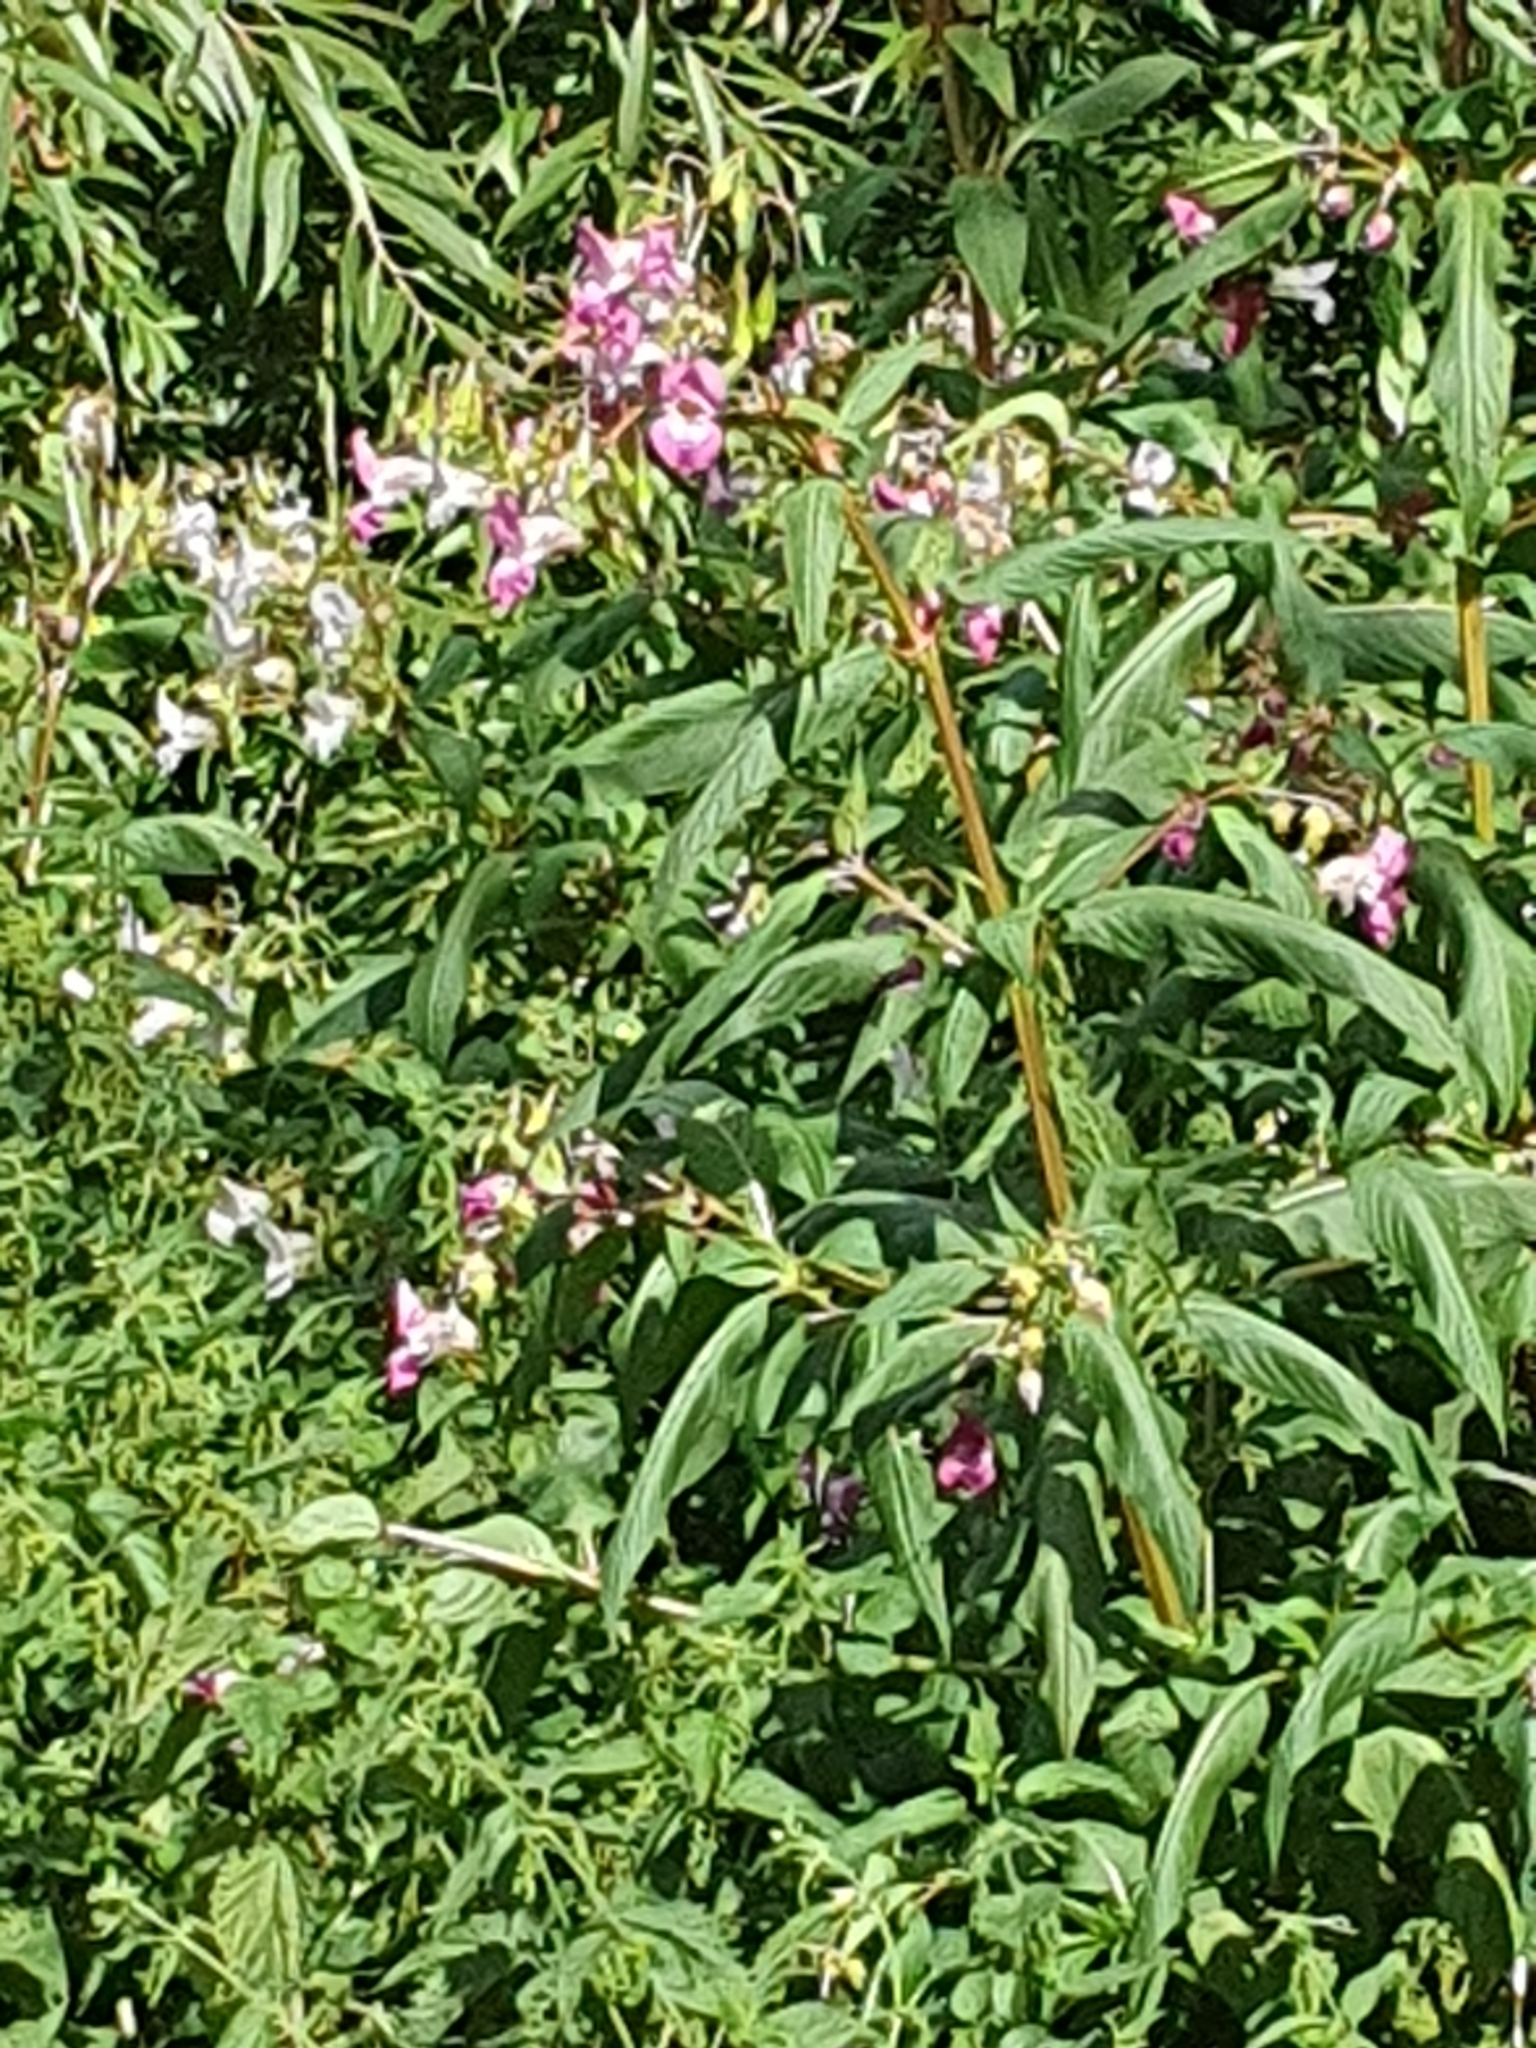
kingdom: Plantae
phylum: Tracheophyta
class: Magnoliopsida
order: Ericales
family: Balsaminaceae
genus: Impatiens
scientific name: Impatiens glandulifera
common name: Himalayan balsam
